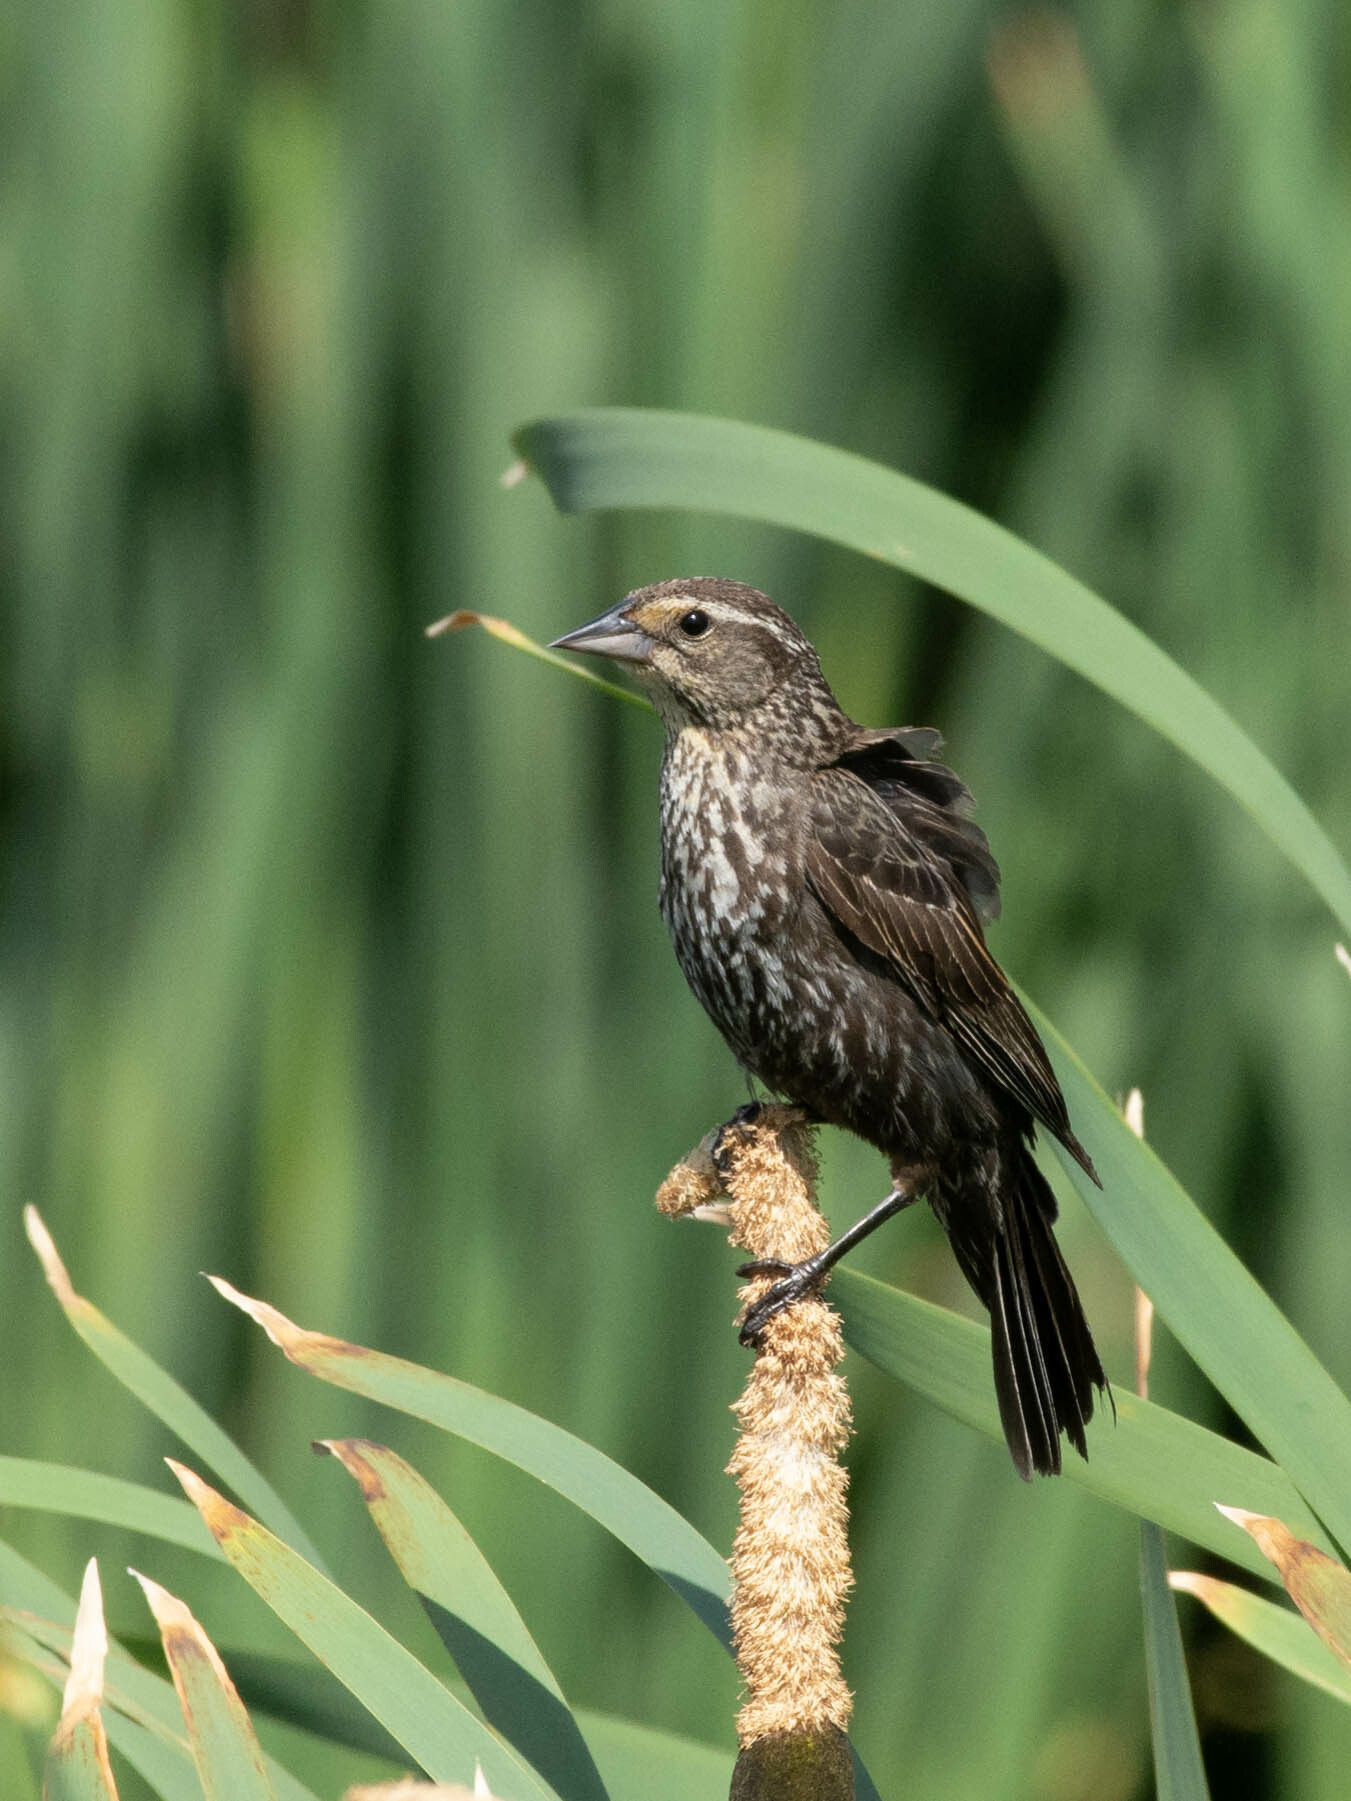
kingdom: Animalia
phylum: Chordata
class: Aves
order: Passeriformes
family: Icteridae
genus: Agelaius
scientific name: Agelaius phoeniceus
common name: Red-winged blackbird
